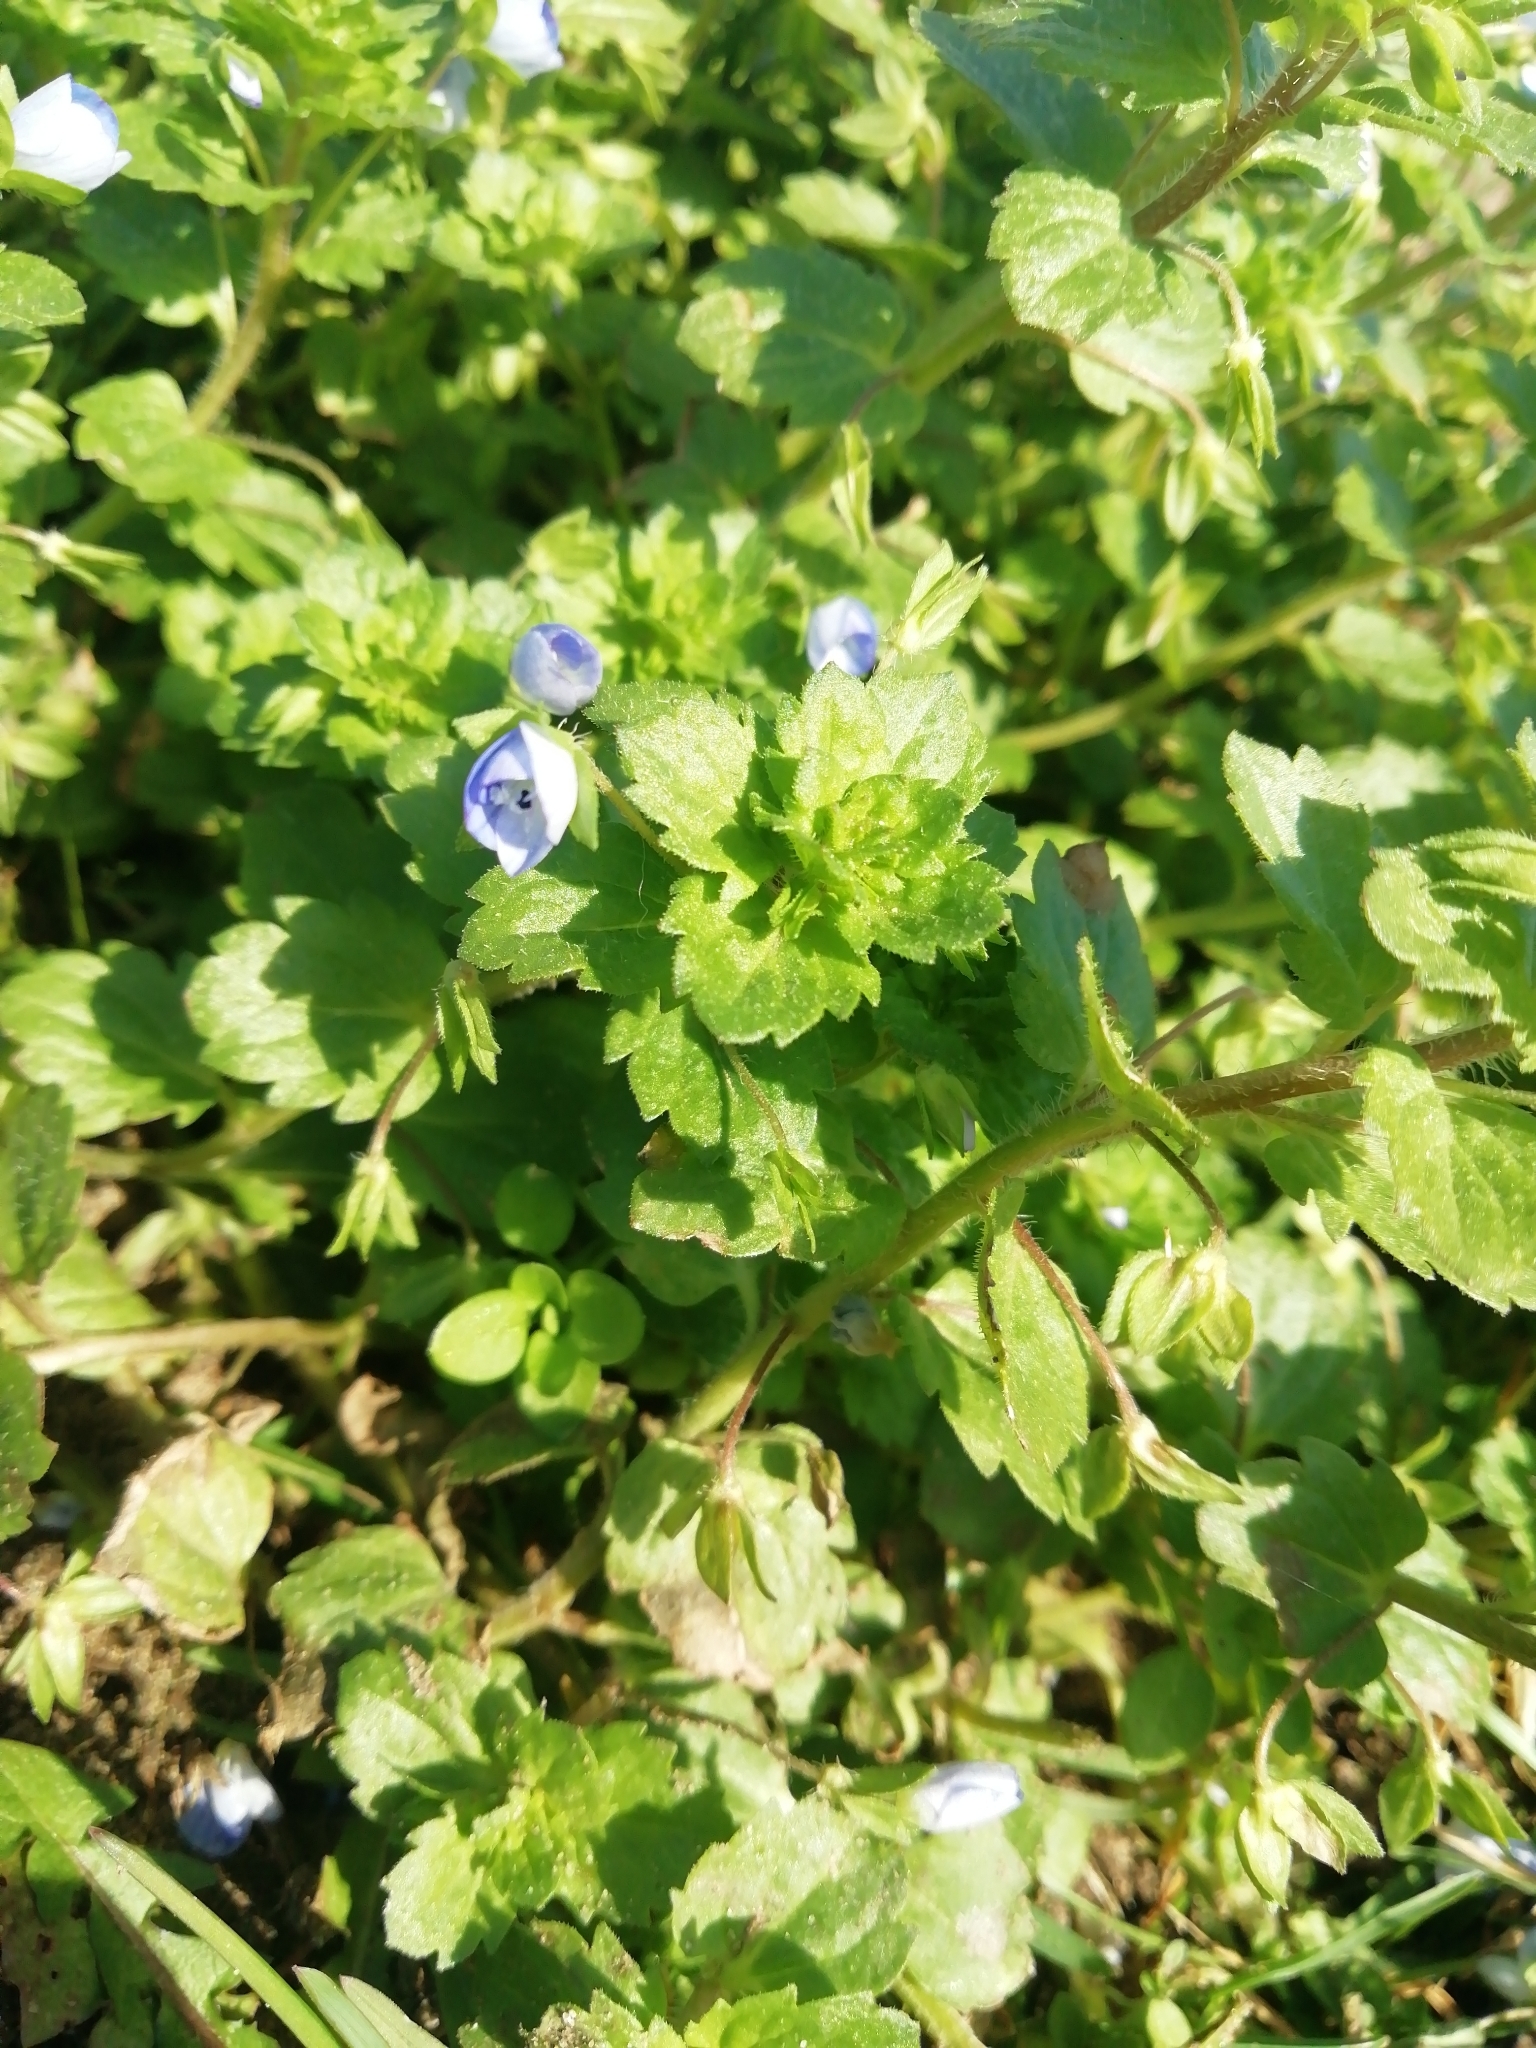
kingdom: Plantae
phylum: Tracheophyta
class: Magnoliopsida
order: Lamiales
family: Plantaginaceae
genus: Veronica
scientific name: Veronica persica
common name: Common field-speedwell
